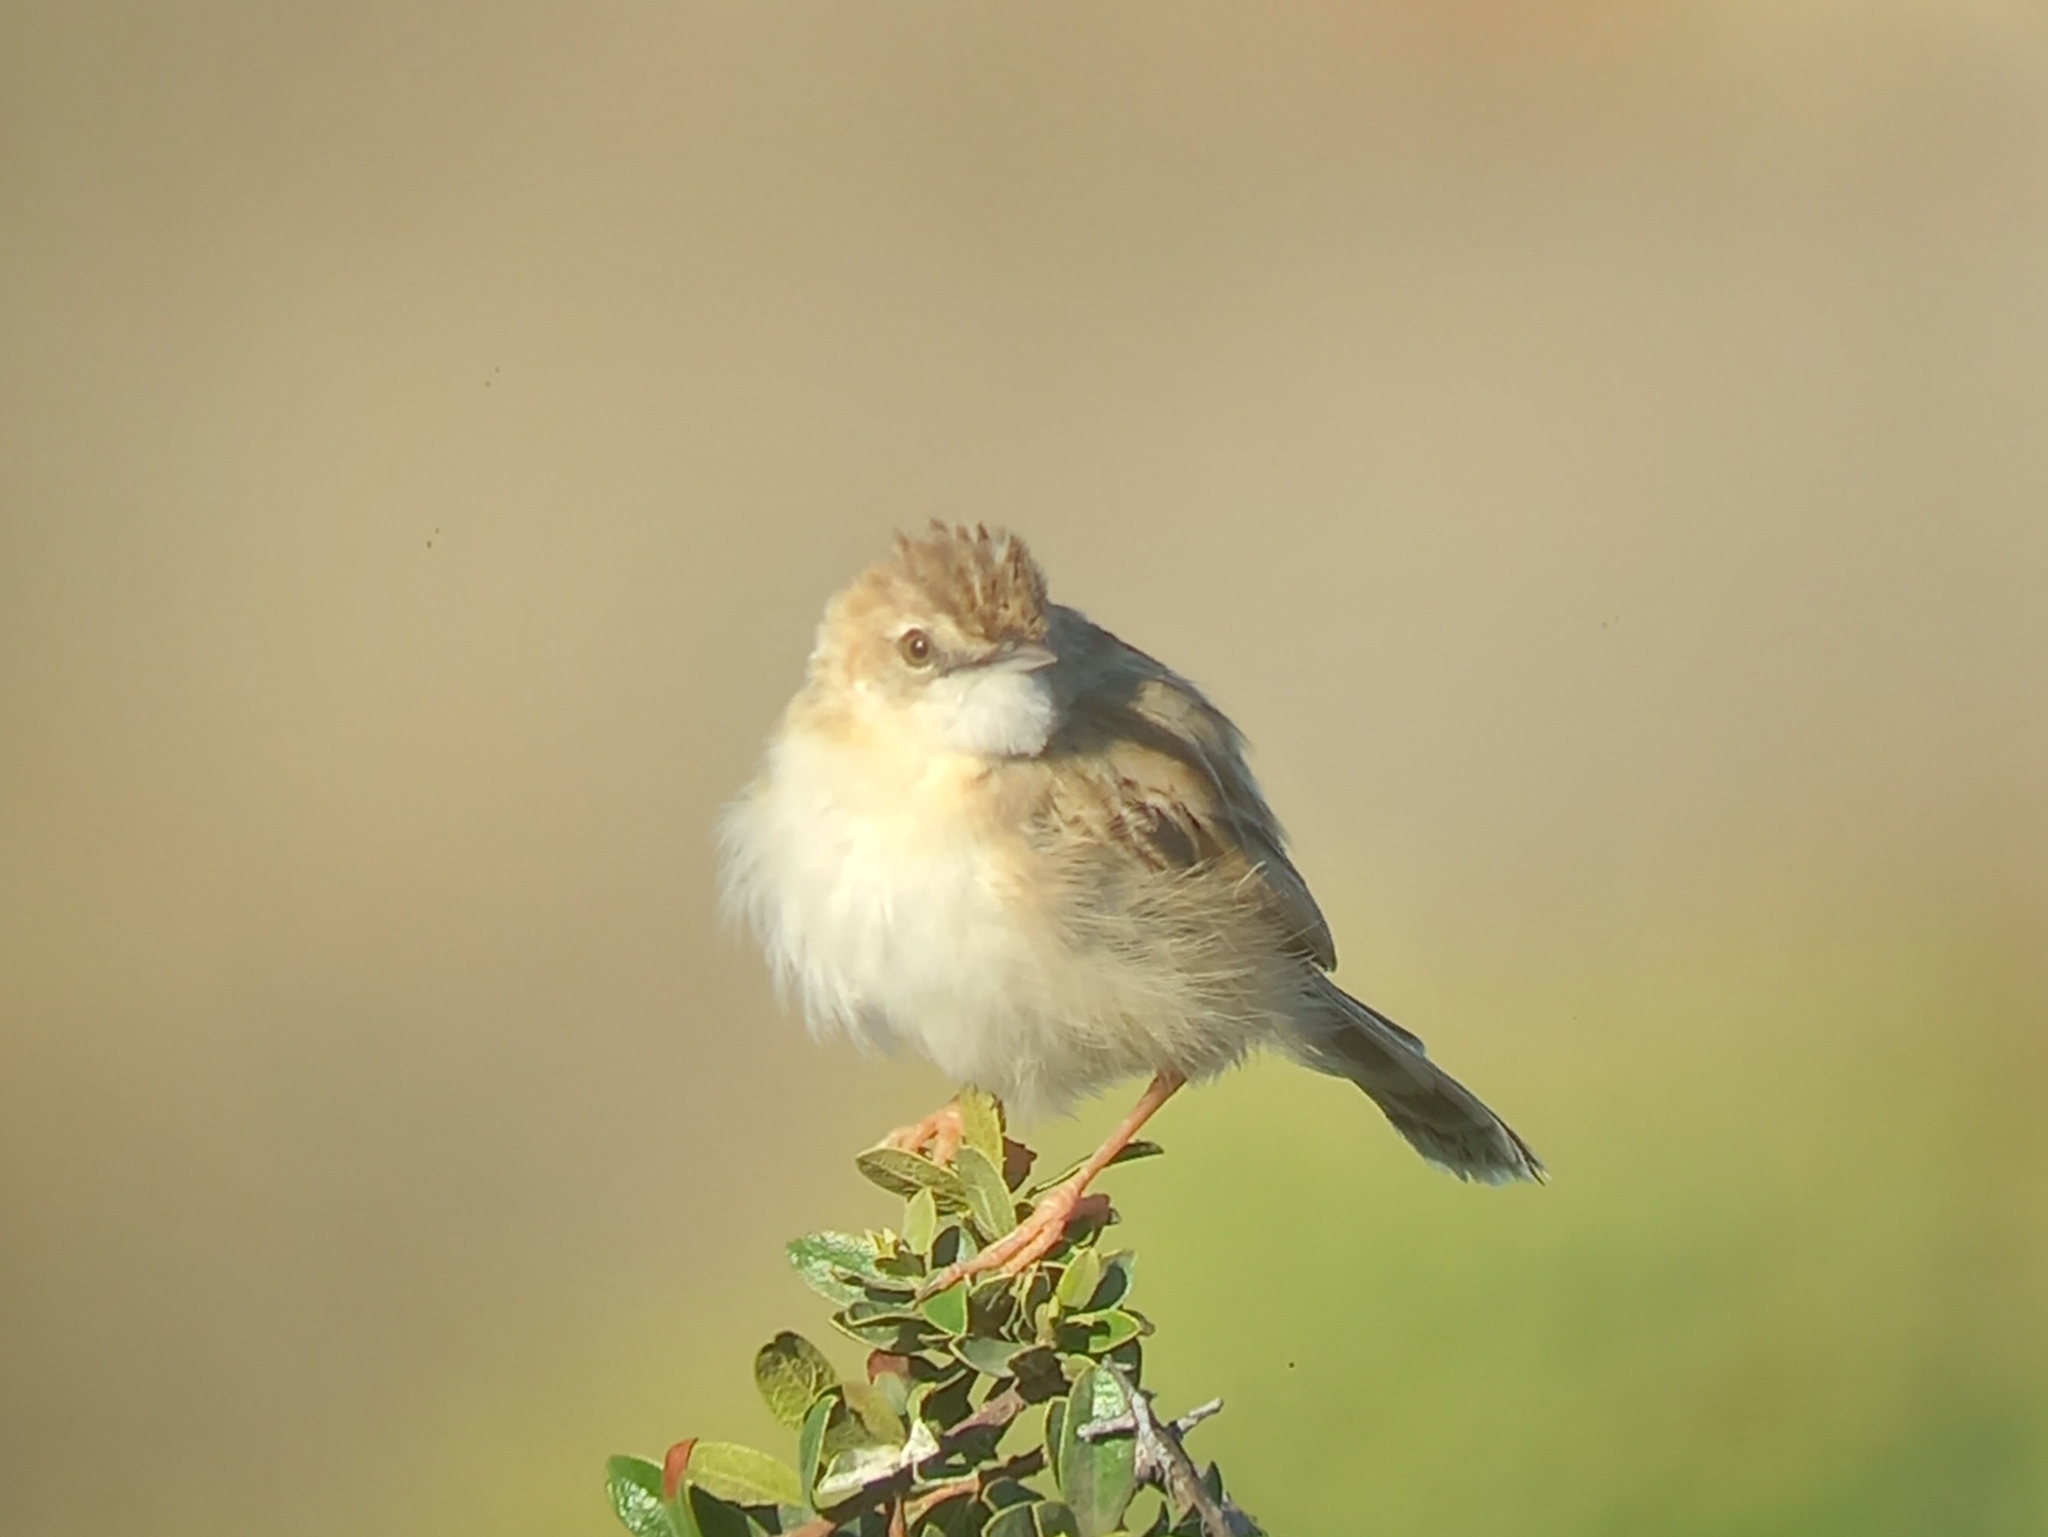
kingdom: Animalia
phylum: Chordata
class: Aves
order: Passeriformes
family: Cisticolidae
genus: Cisticola
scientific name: Cisticola aridulus
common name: Desert cisticola
